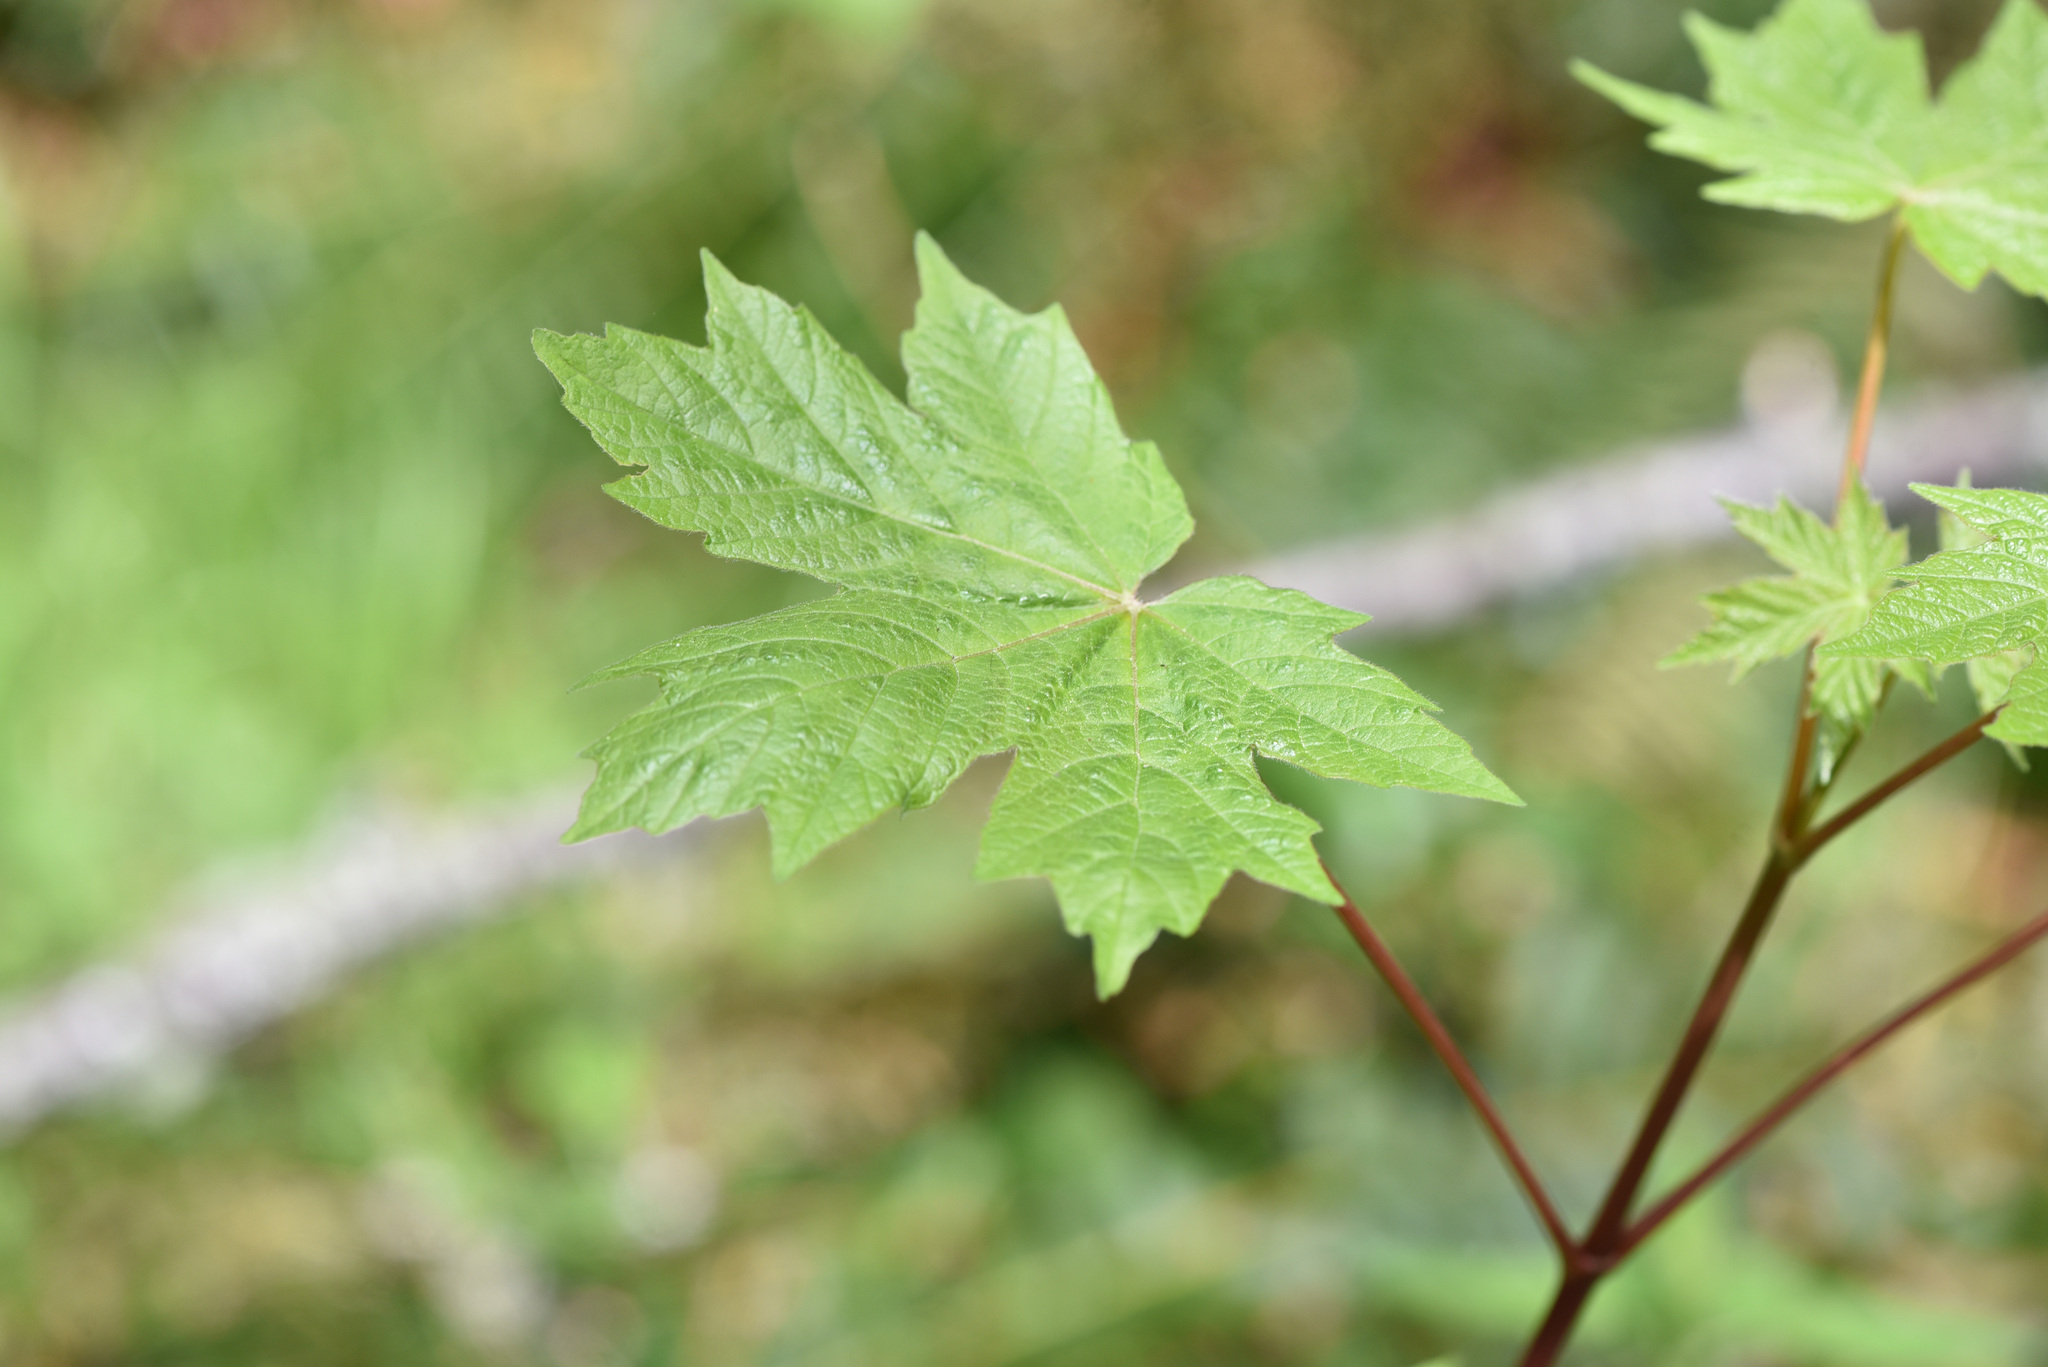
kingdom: Plantae
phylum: Tracheophyta
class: Magnoliopsida
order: Sapindales
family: Sapindaceae
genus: Acer
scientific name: Acer macrophyllum
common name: Oregon maple
